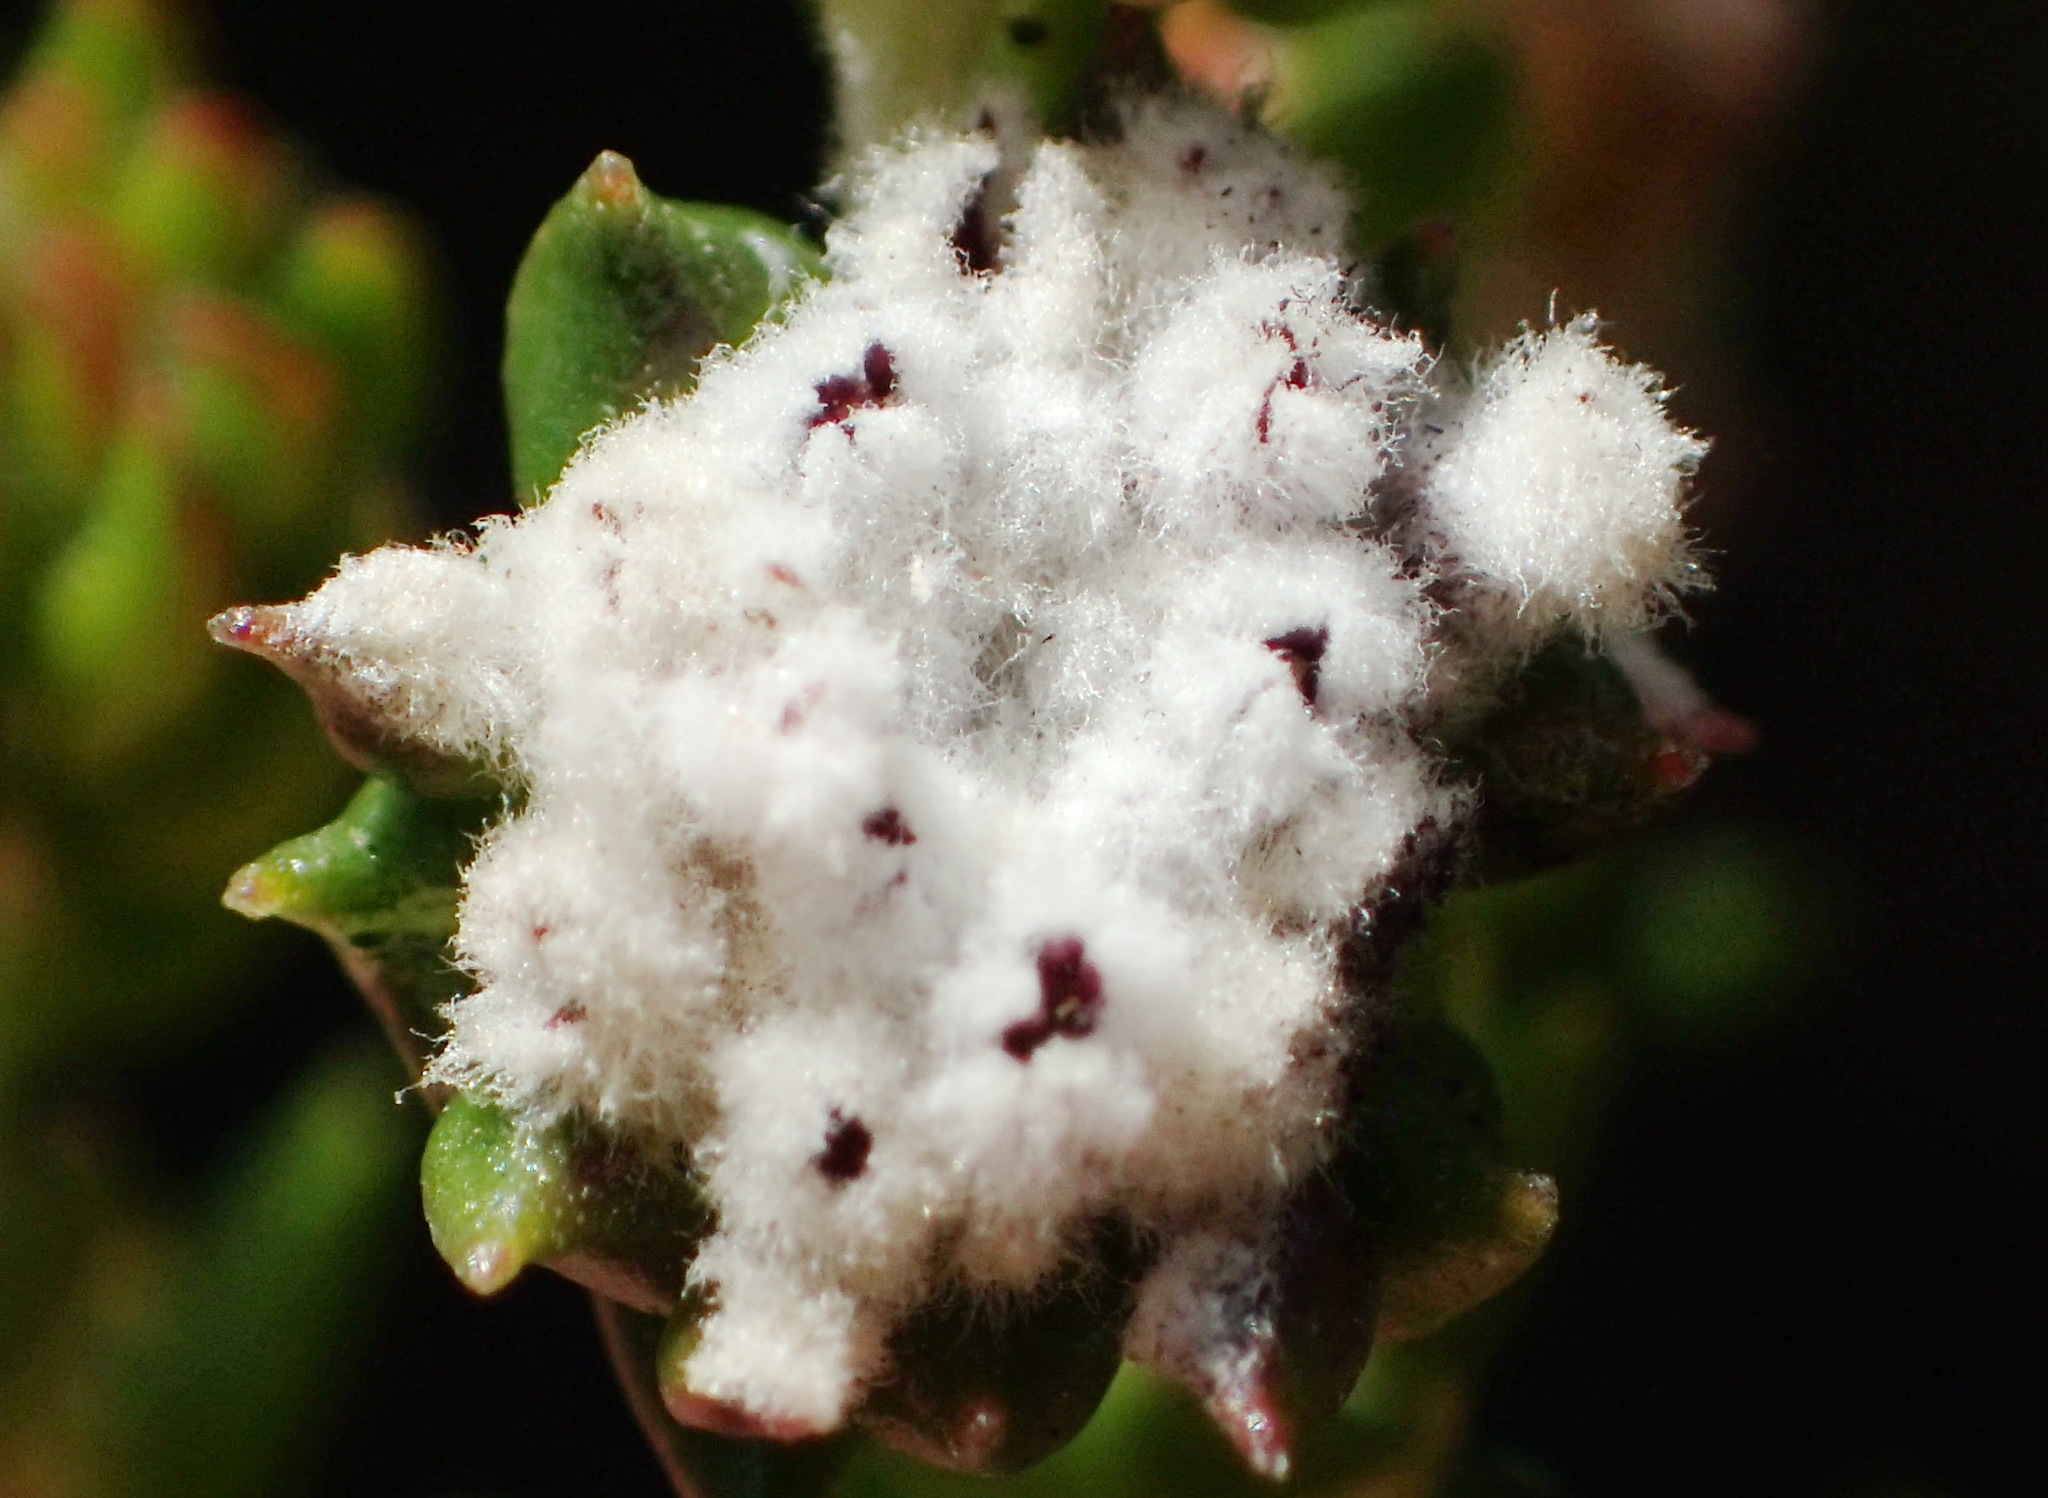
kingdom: Plantae
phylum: Tracheophyta
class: Magnoliopsida
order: Rosales
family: Rhamnaceae
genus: Phylica
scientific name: Phylica debilis
